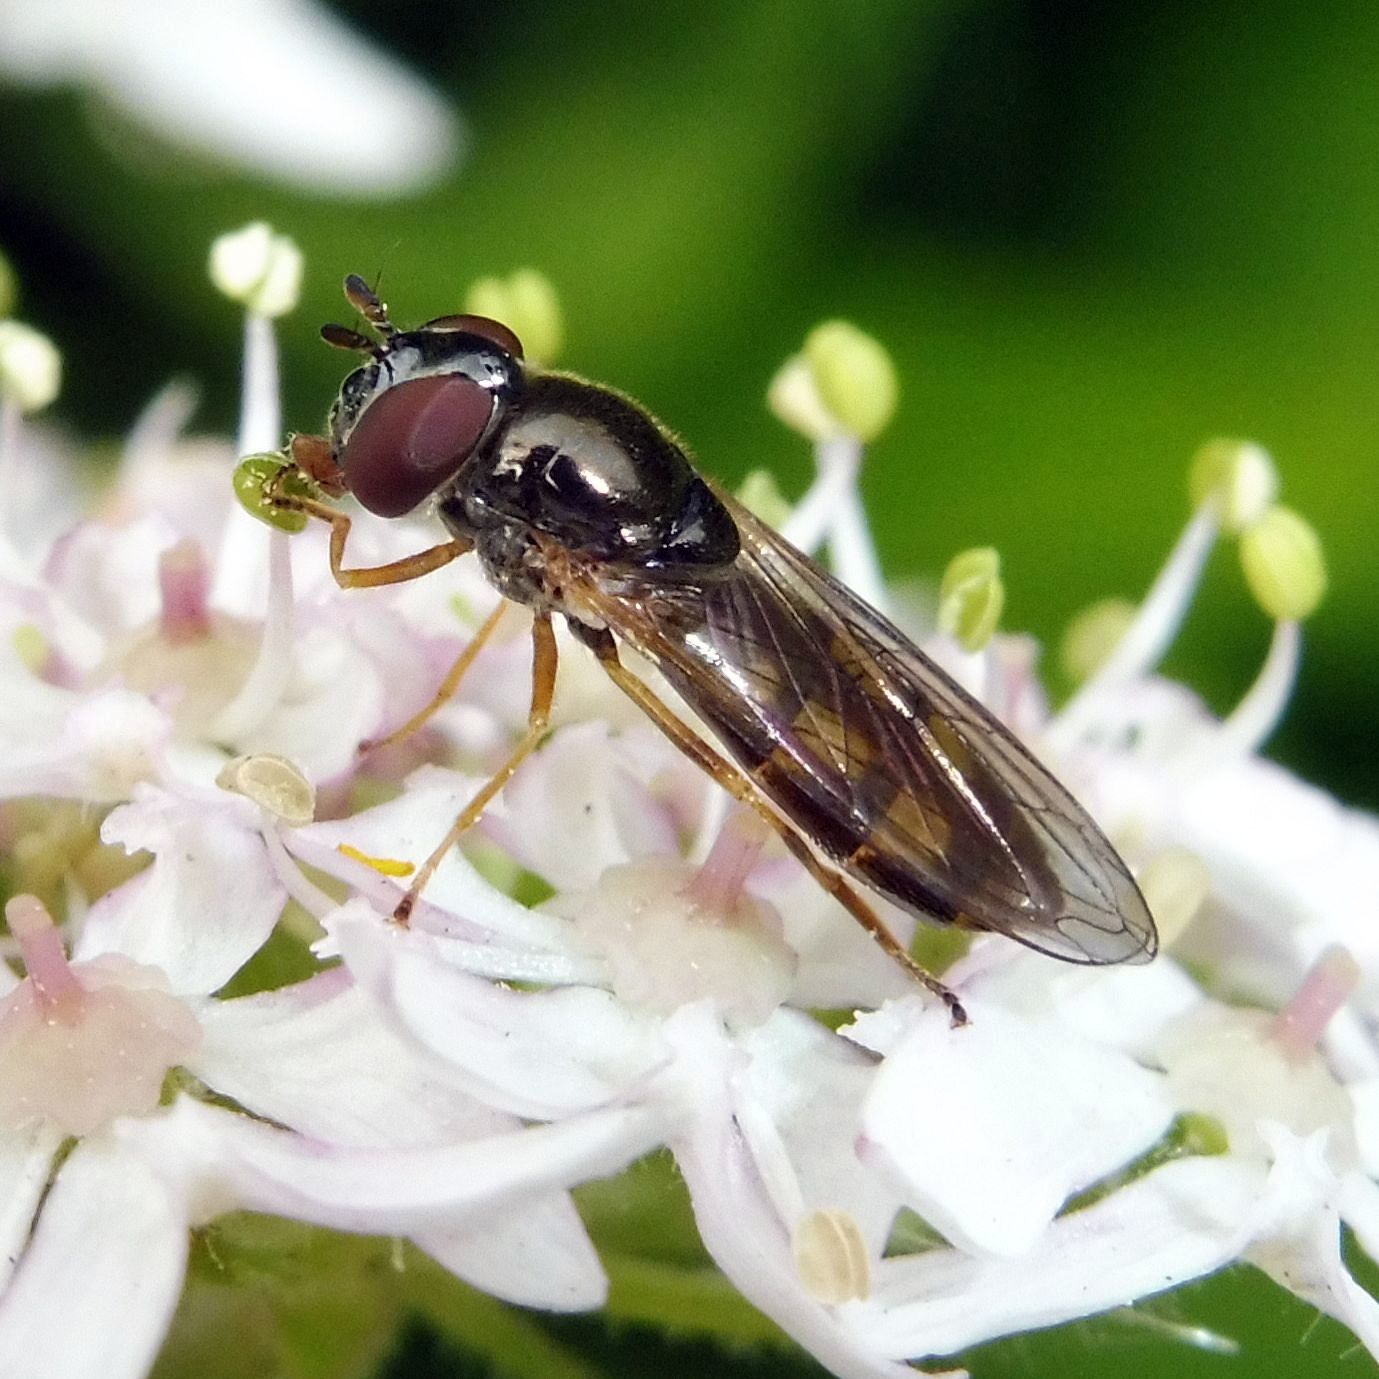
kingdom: Animalia
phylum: Arthropoda
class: Insecta
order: Diptera
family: Syrphidae
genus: Melanostoma
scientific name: Melanostoma mellina
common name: Hover fly
